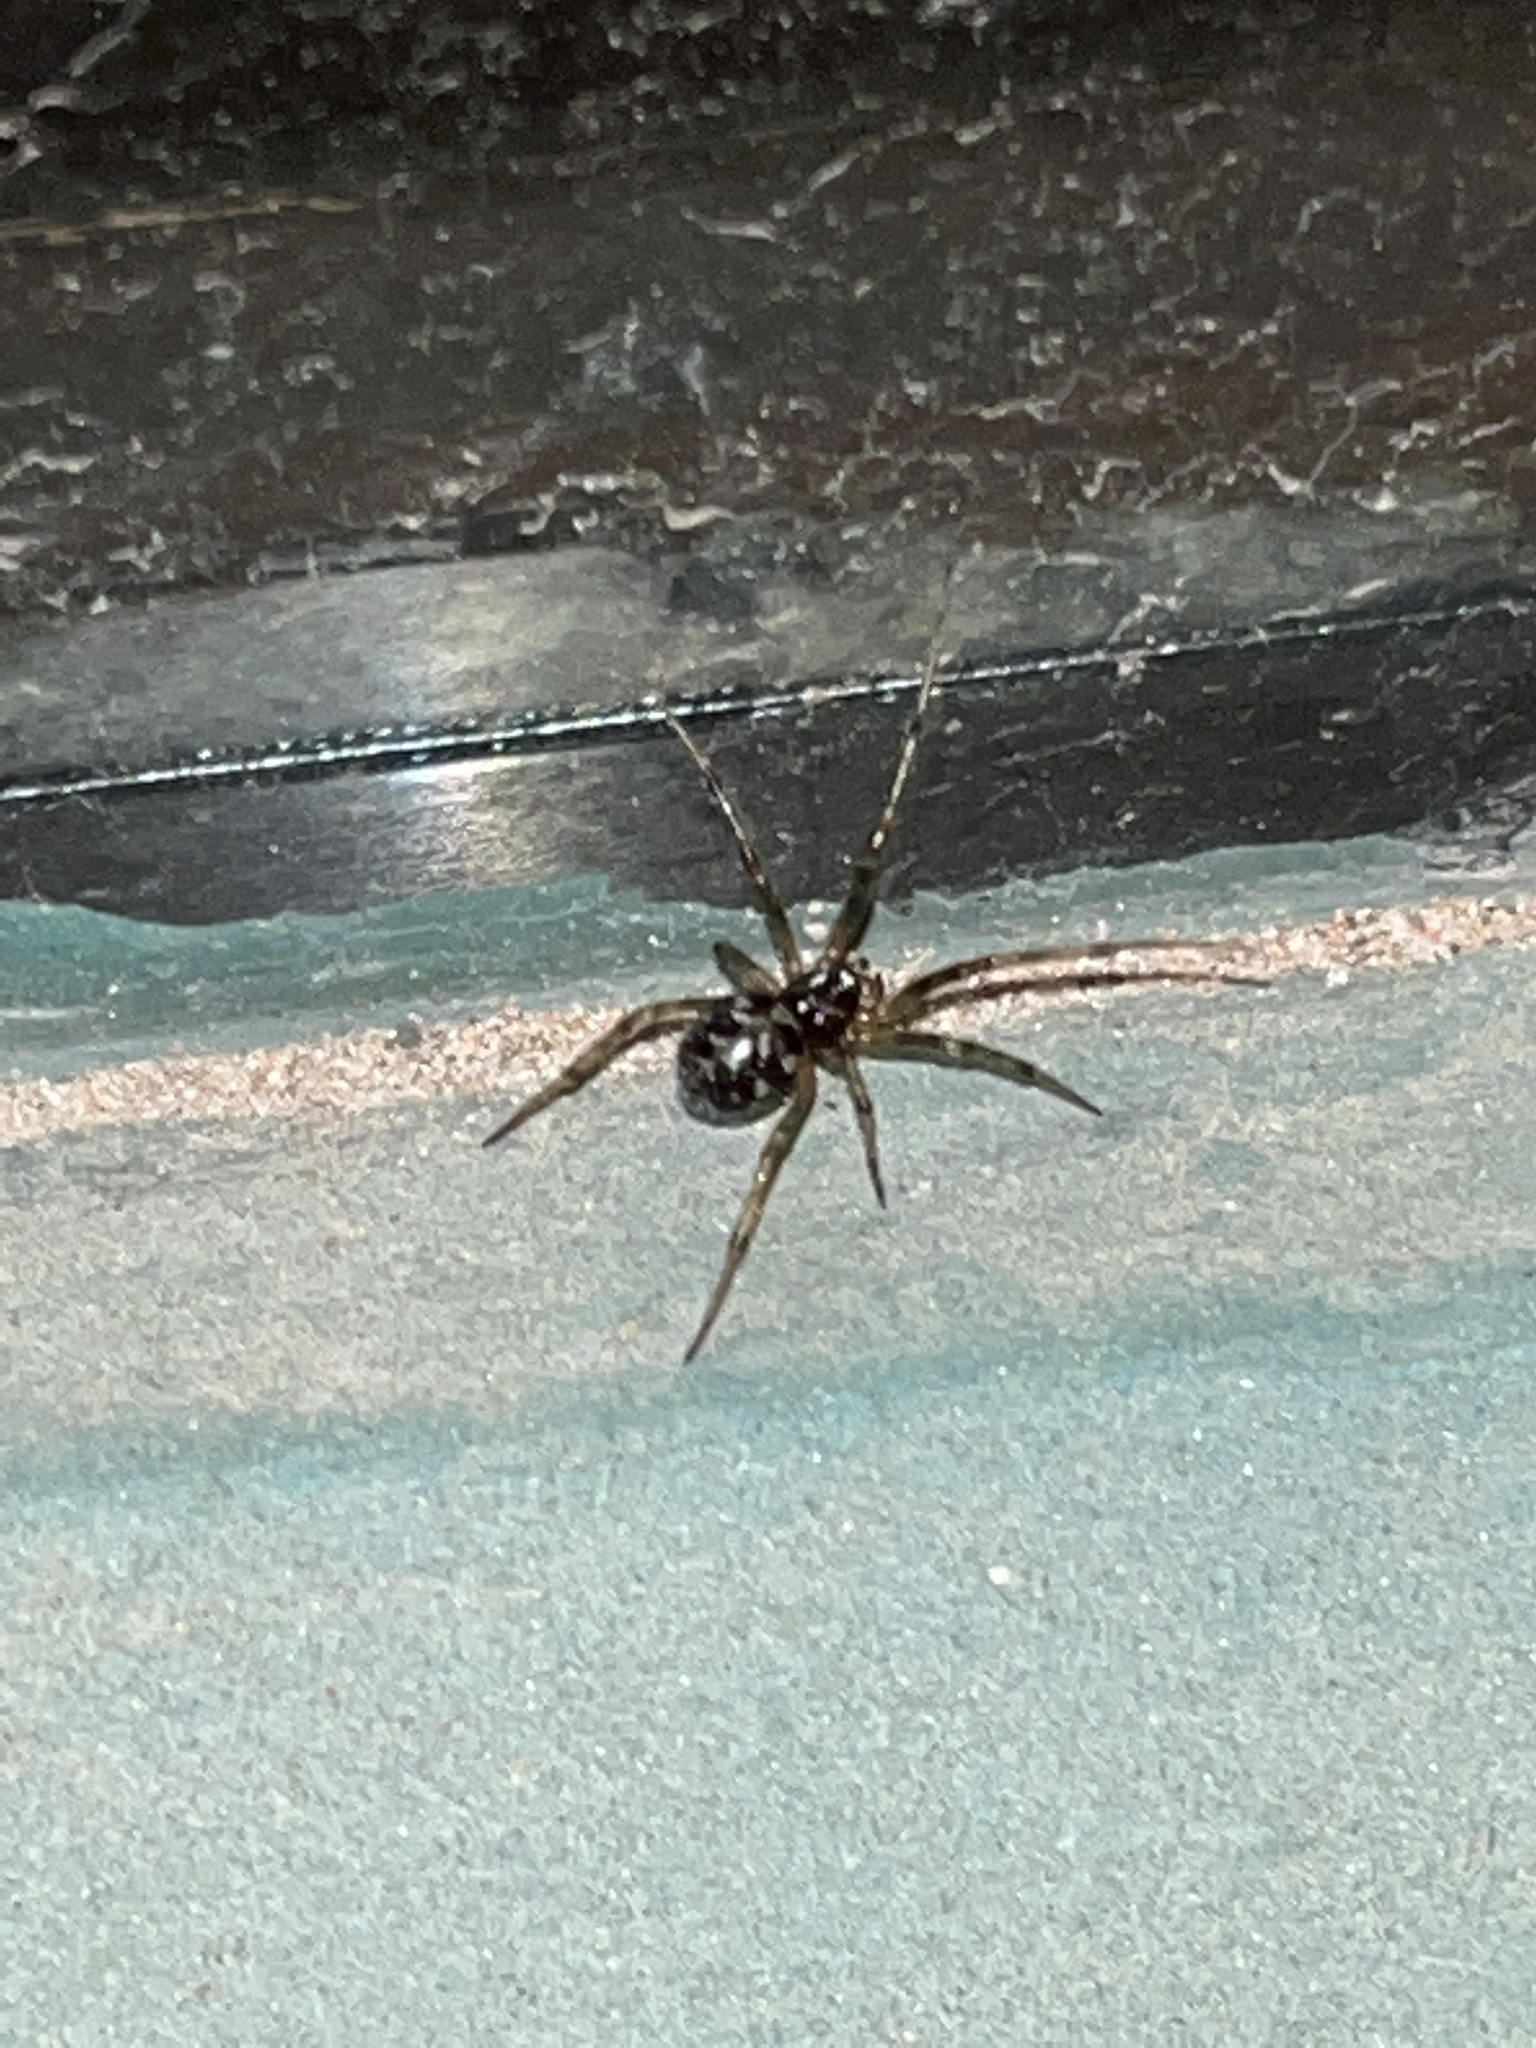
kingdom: Animalia
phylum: Arthropoda
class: Arachnida
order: Araneae
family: Theridiidae
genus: Steatoda
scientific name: Steatoda triangulosa
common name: Triangulate bud spider
